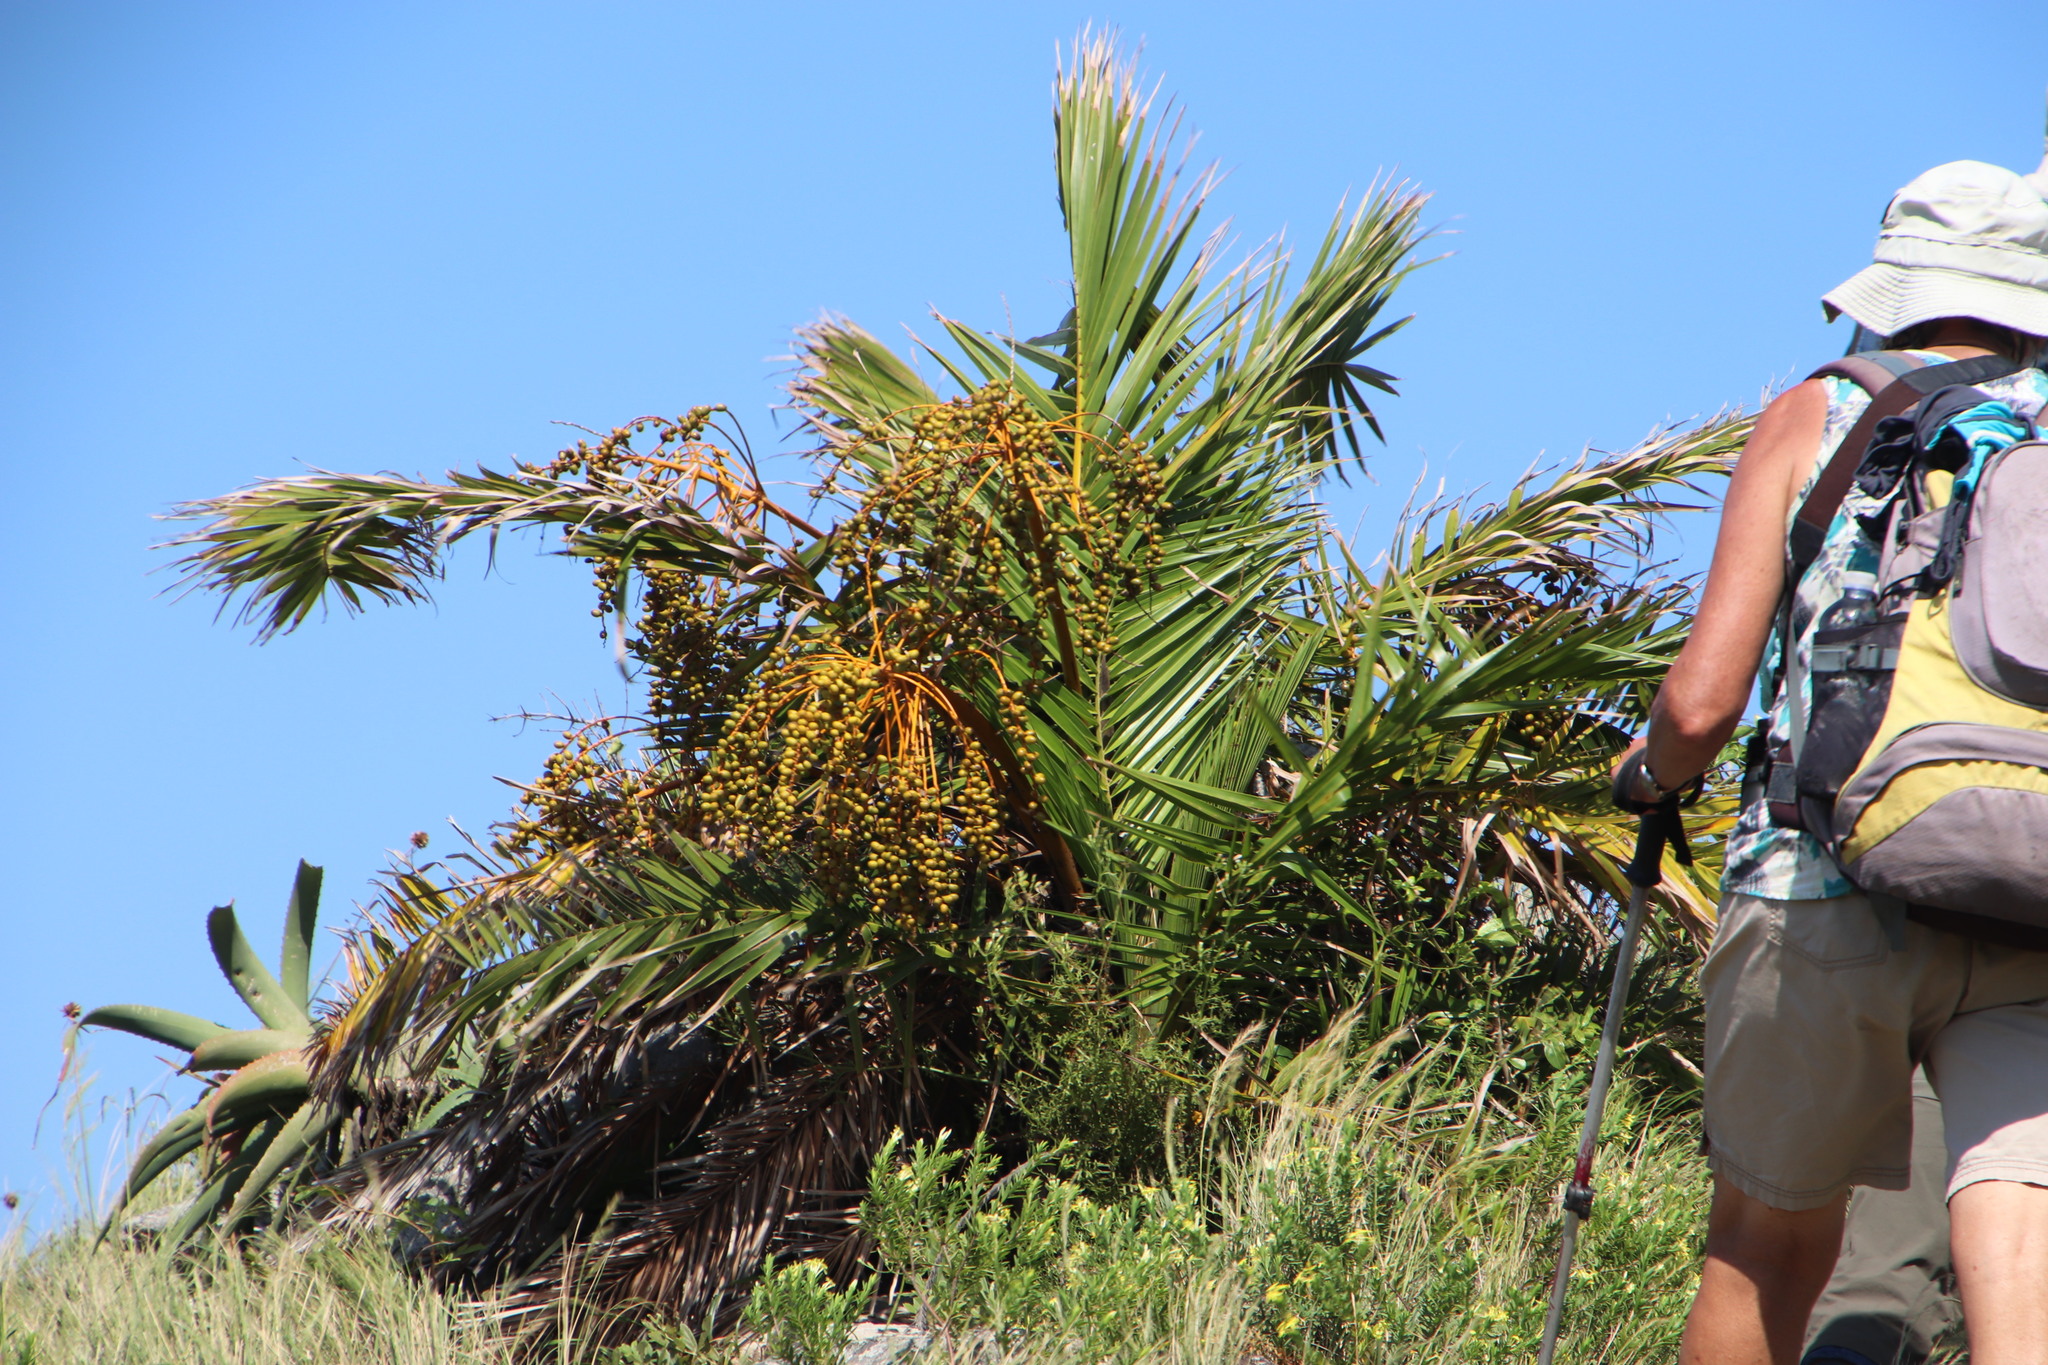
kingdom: Plantae
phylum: Tracheophyta
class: Liliopsida
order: Arecales
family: Arecaceae
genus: Phoenix
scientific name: Phoenix reclinata
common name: Senegal date palm
